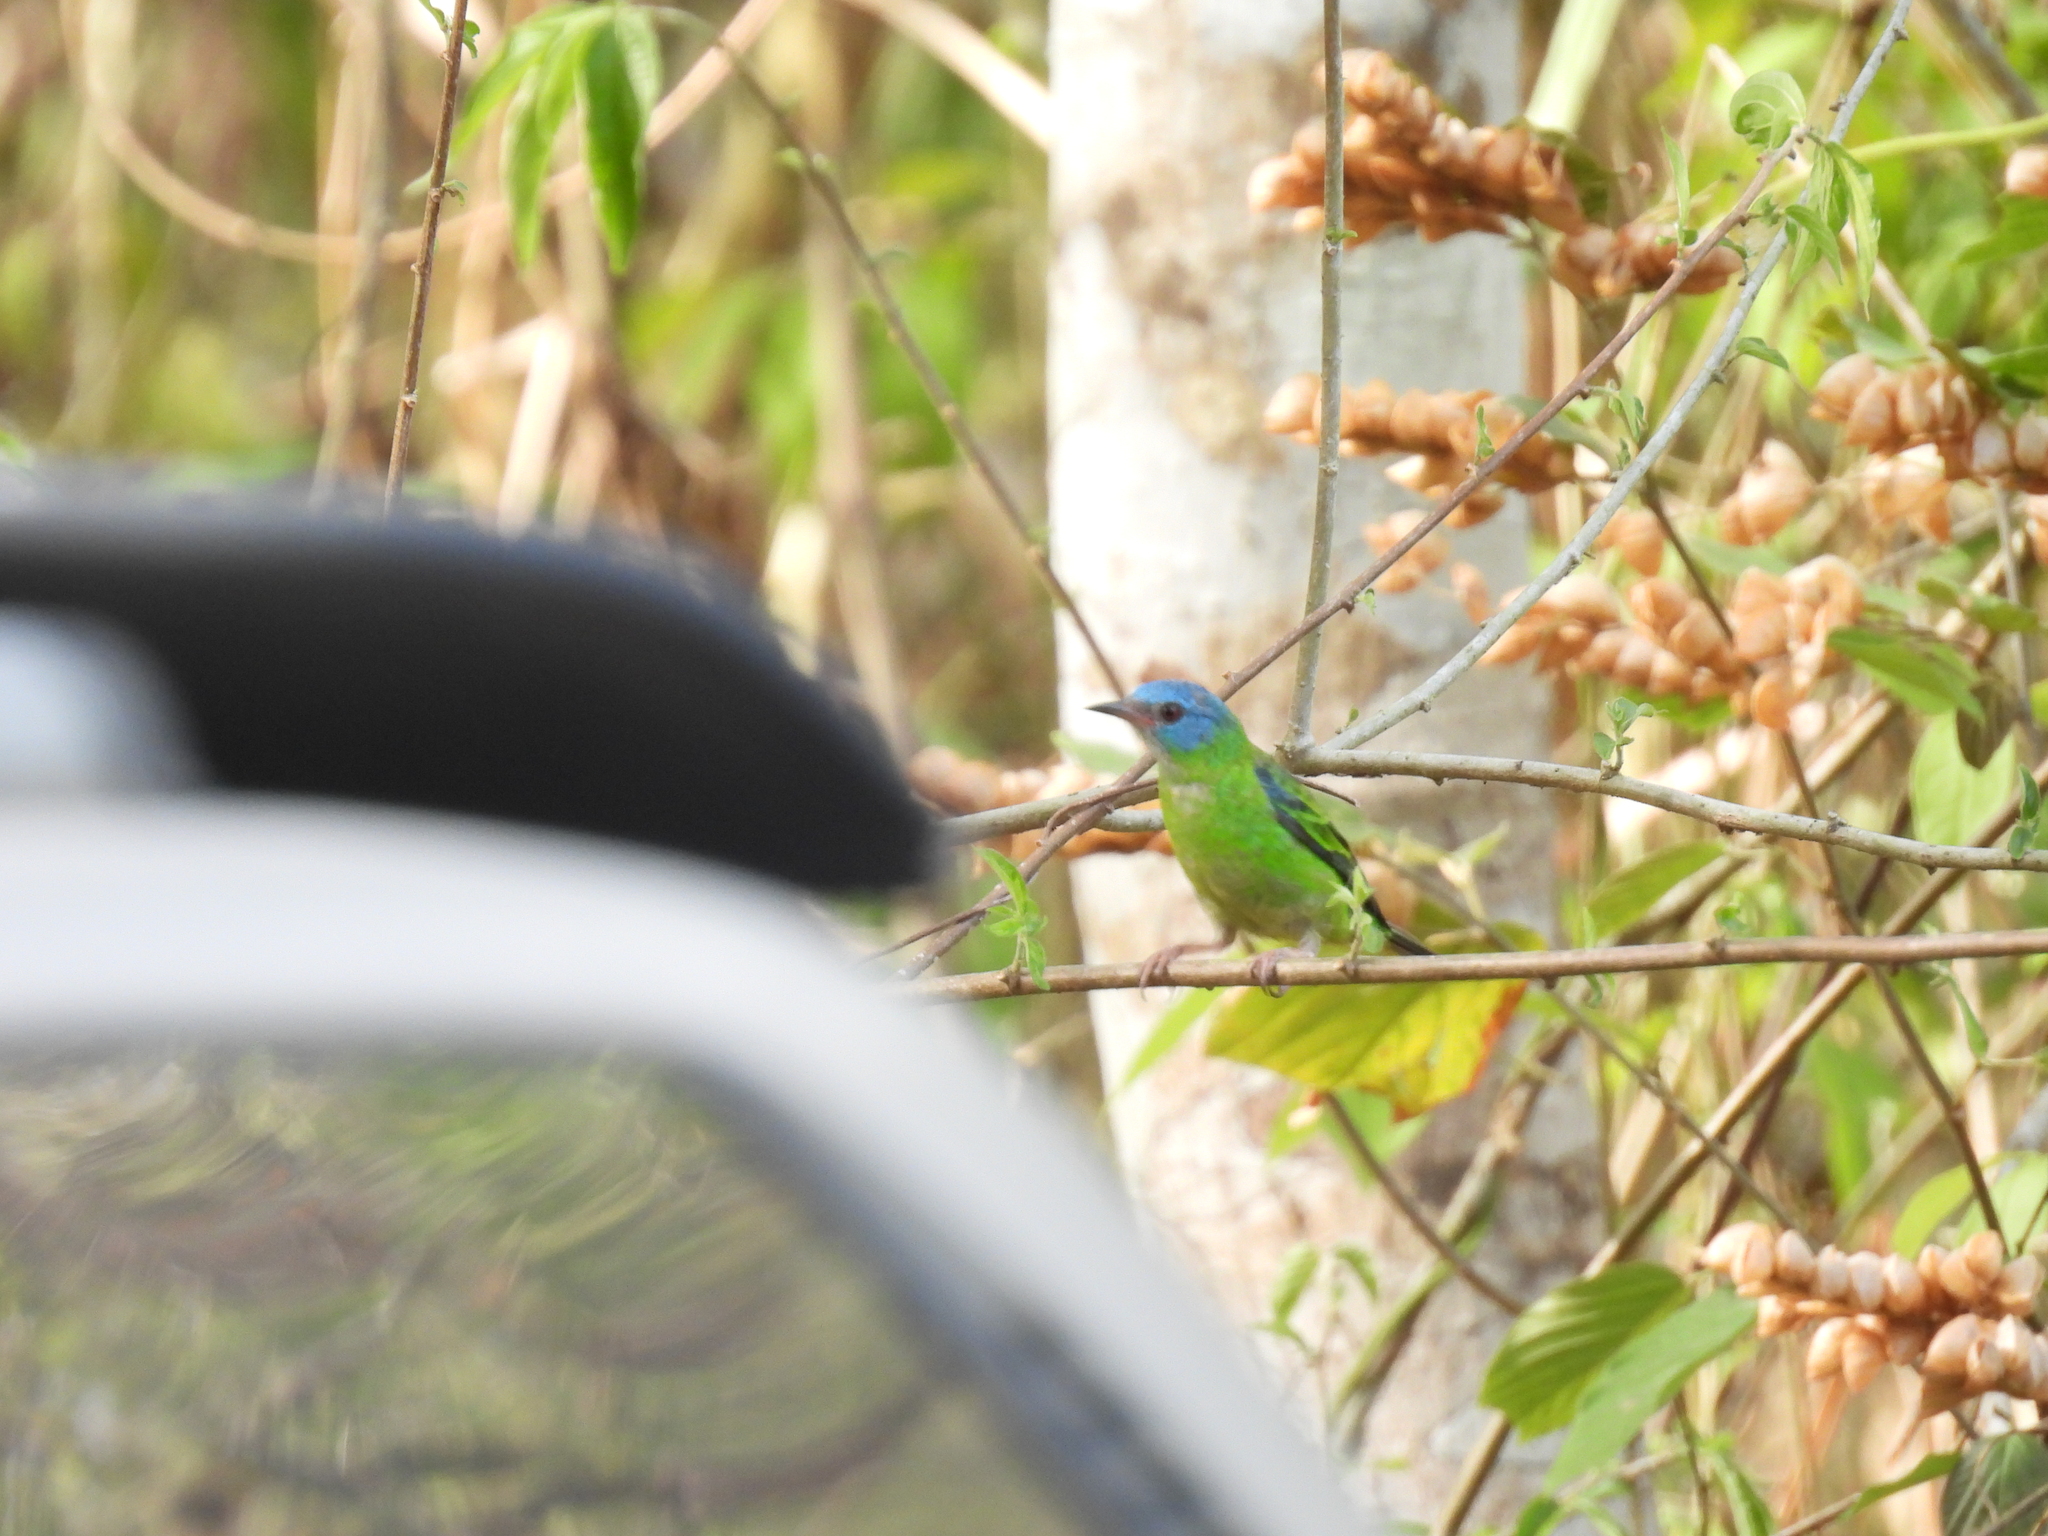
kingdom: Animalia
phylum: Chordata
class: Aves
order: Passeriformes
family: Thraupidae
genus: Dacnis
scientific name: Dacnis cayana
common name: Blue dacnis
